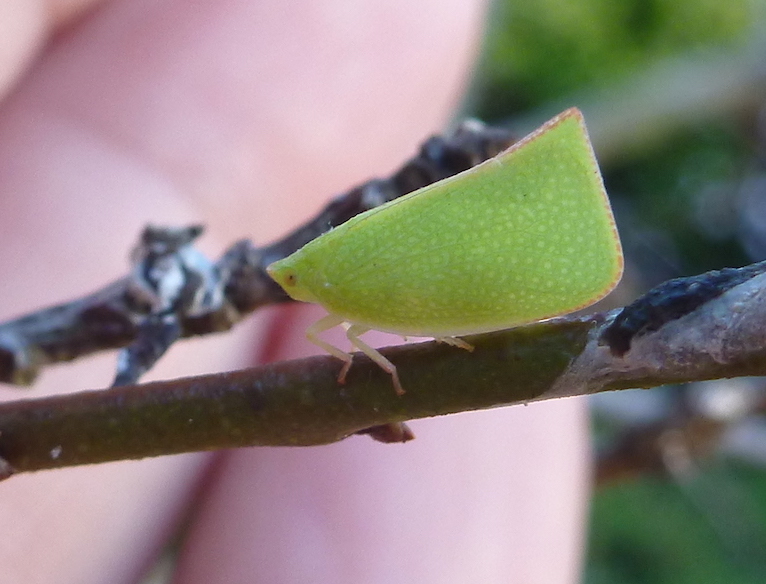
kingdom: Animalia
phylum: Arthropoda
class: Insecta
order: Hemiptera
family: Flatidae
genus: Siphanta
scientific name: Siphanta acuta
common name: Torpedo bug
